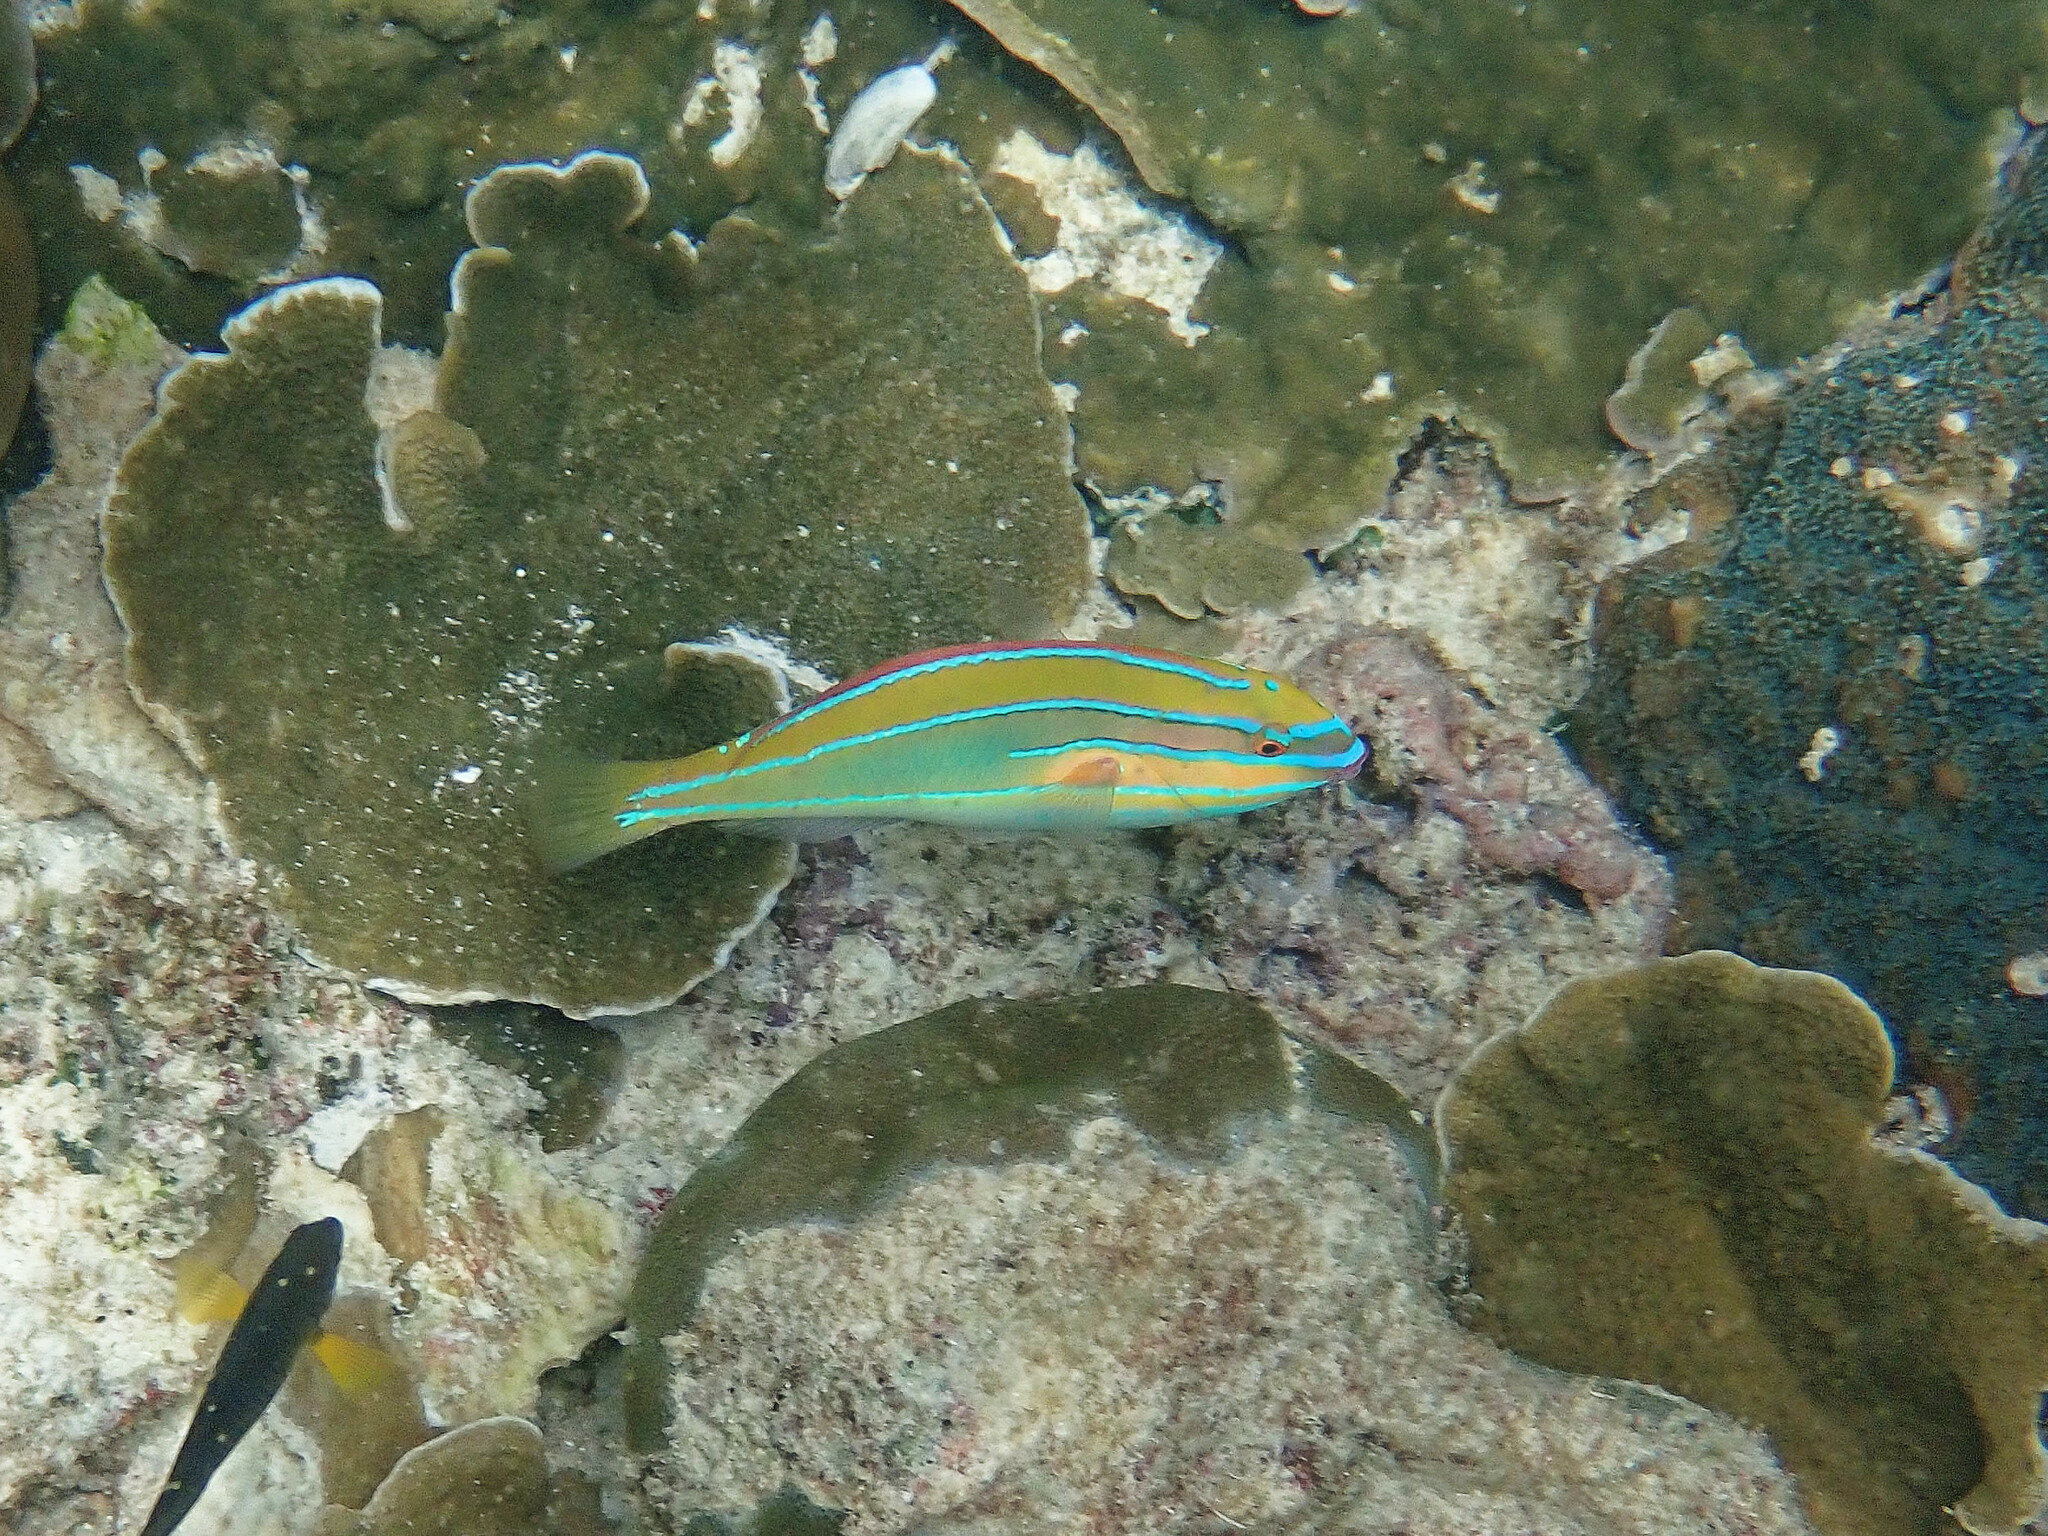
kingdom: Animalia
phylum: Chordata
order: Perciformes
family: Labridae
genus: Stethojulis
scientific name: Stethojulis trilineata
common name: Blue-ribbon wrasse
